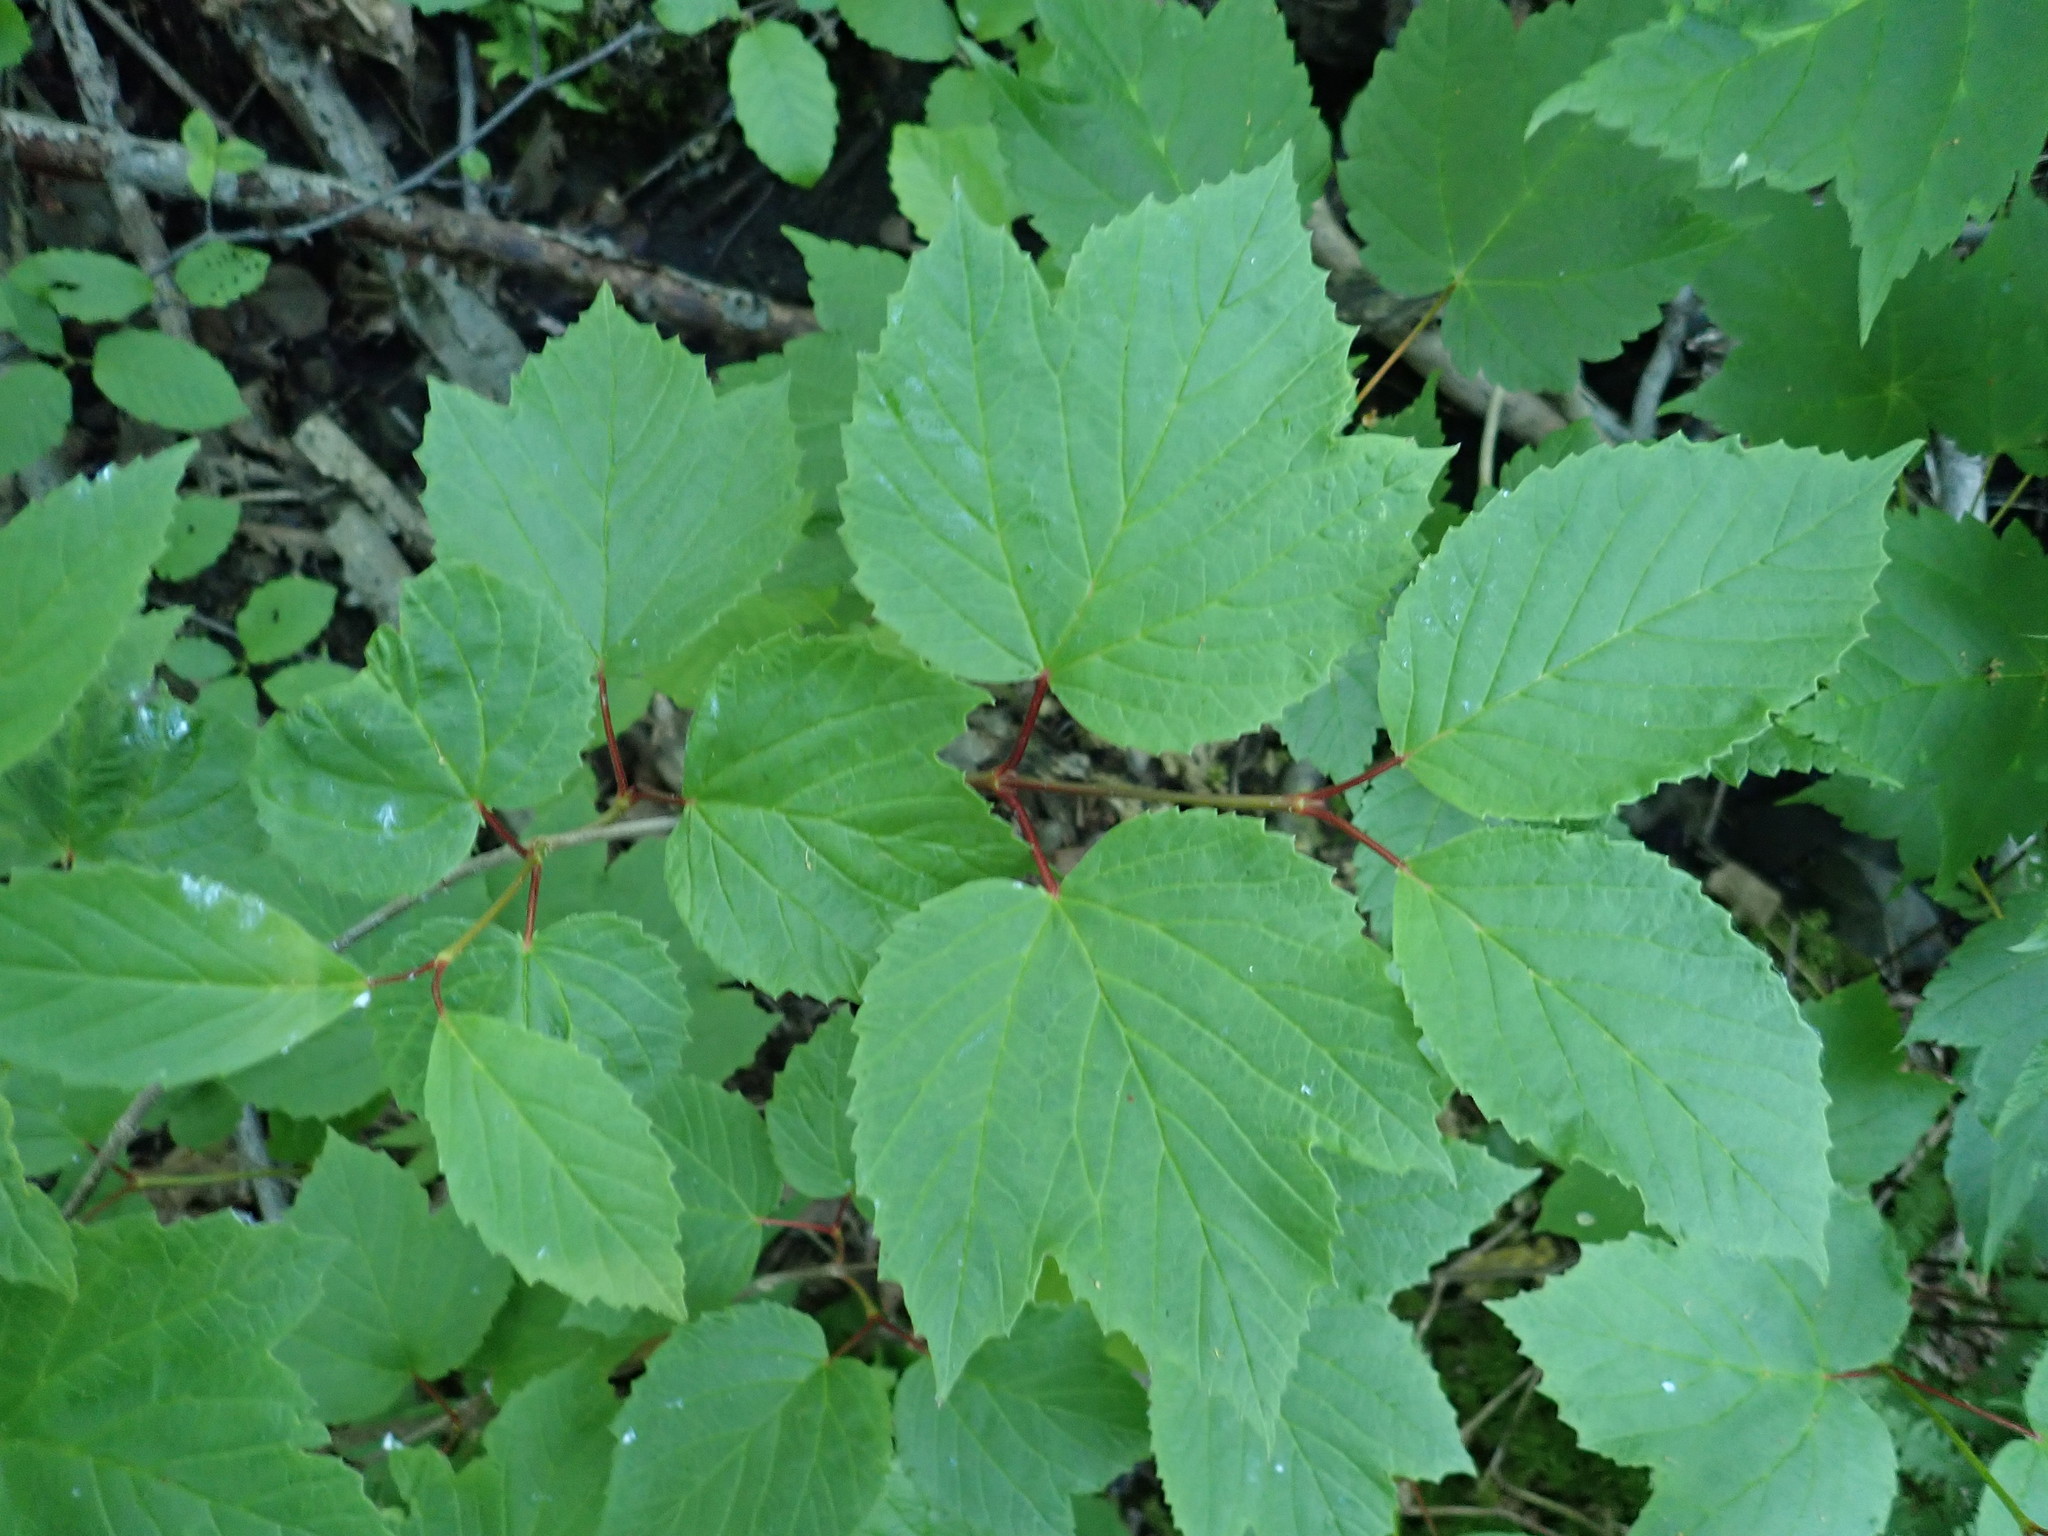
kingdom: Plantae
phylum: Tracheophyta
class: Magnoliopsida
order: Dipsacales
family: Viburnaceae
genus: Viburnum
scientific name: Viburnum edule
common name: Mooseberry
